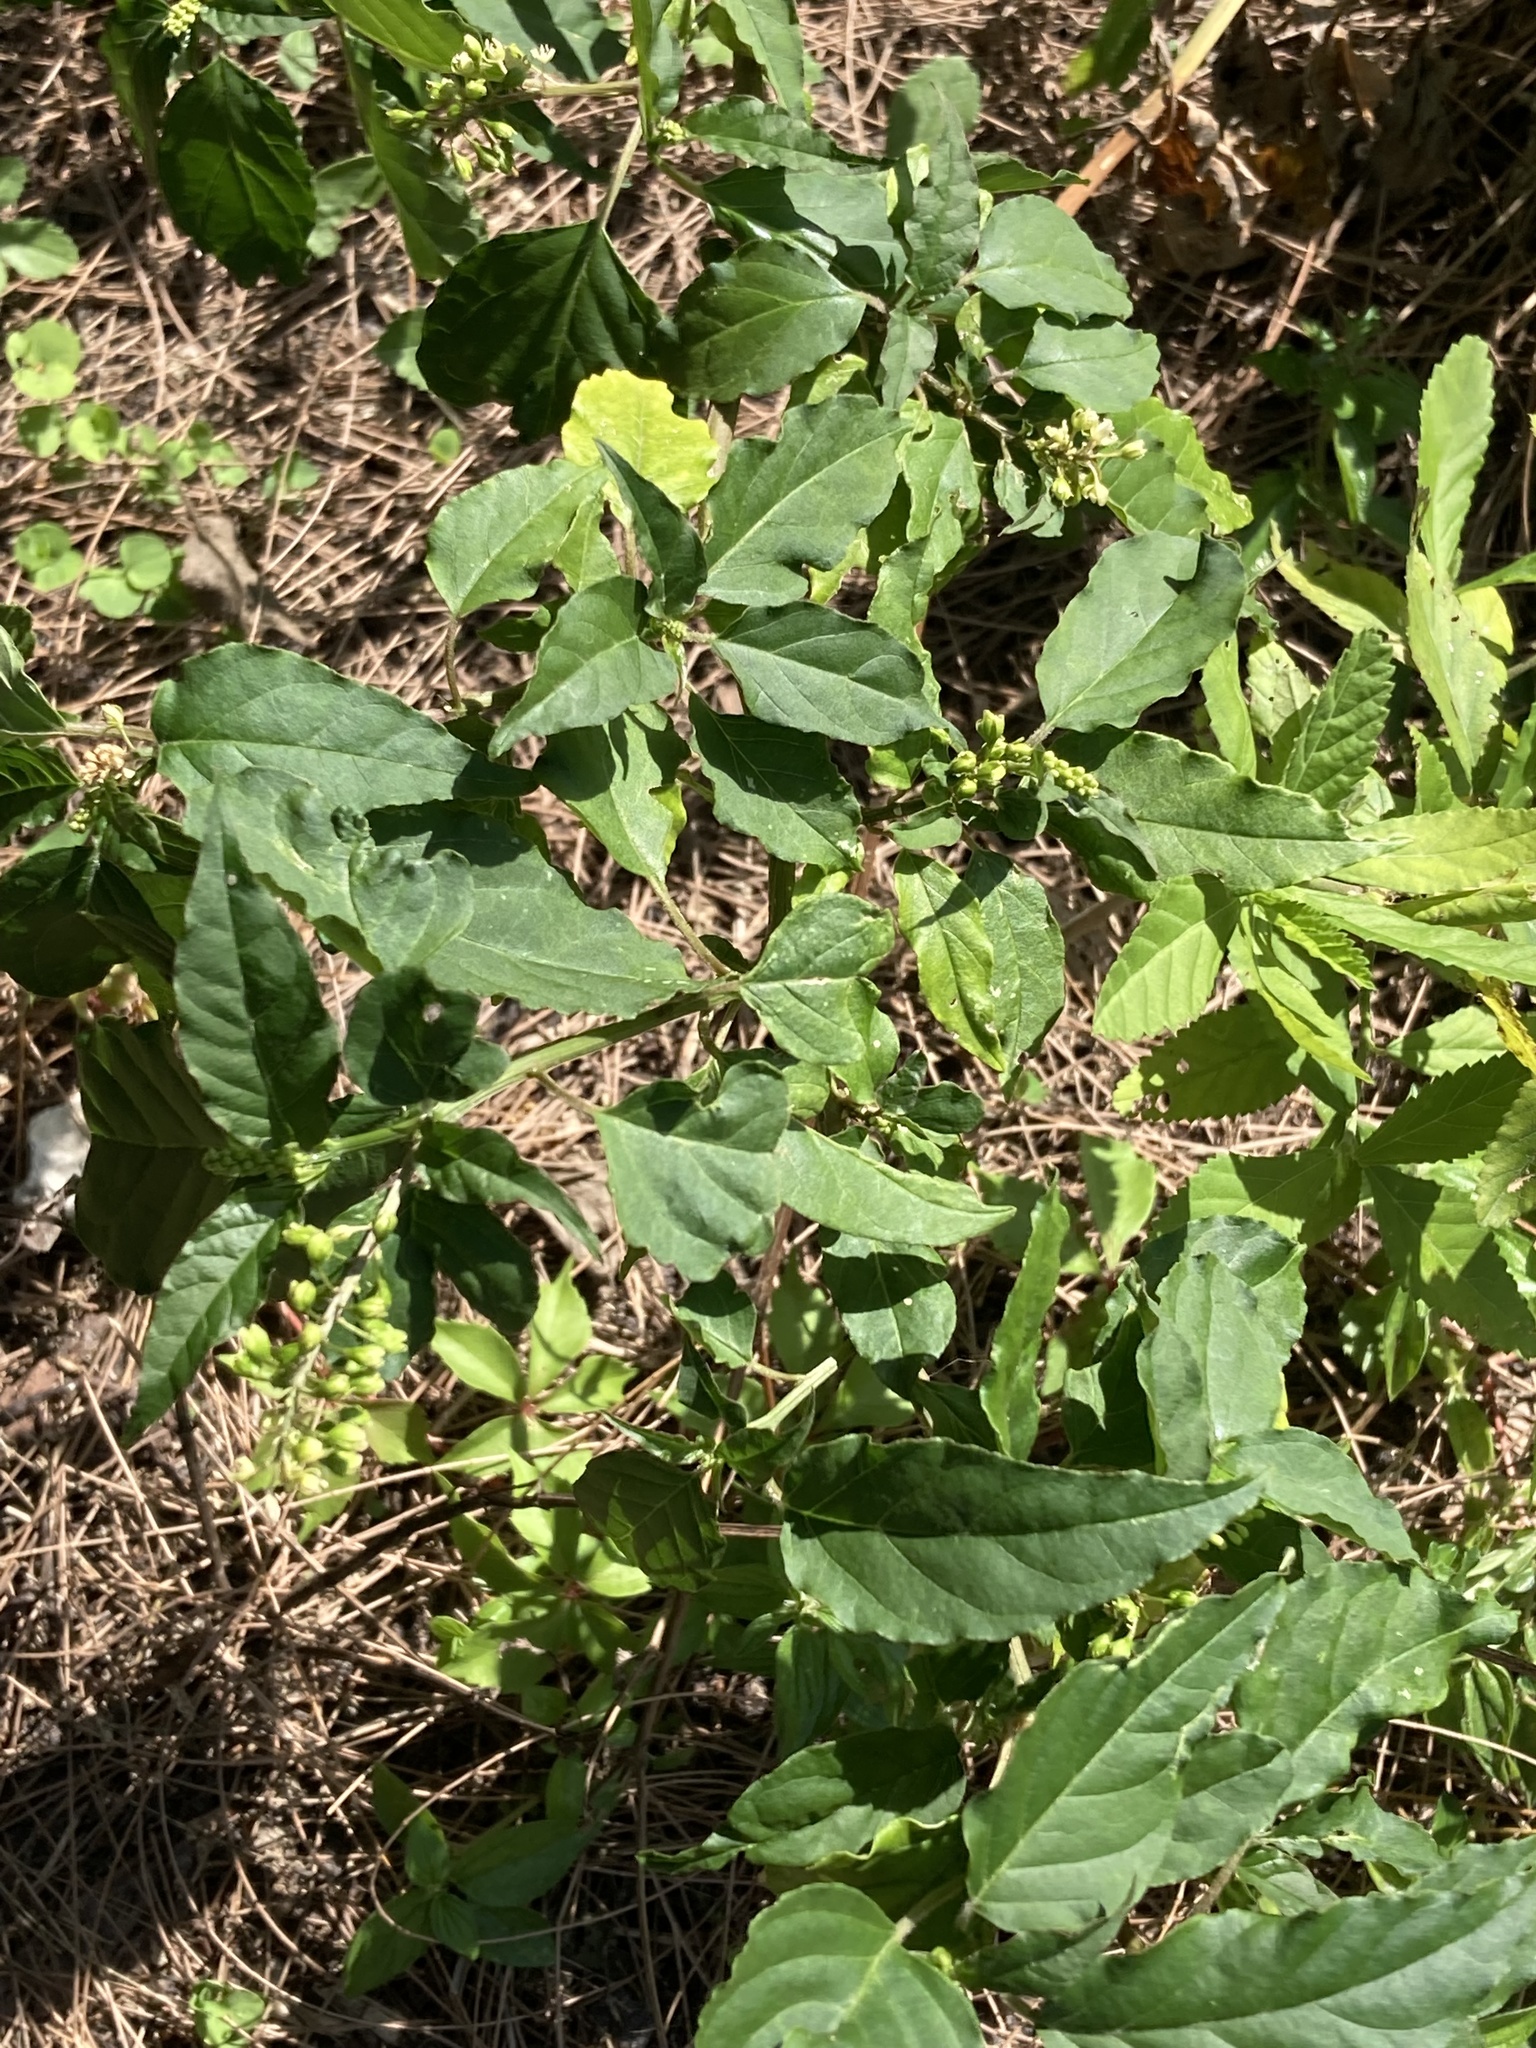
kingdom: Plantae
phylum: Tracheophyta
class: Magnoliopsida
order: Caryophyllales
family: Phytolaccaceae
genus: Rivina
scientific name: Rivina humilis
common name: Rougeplant
